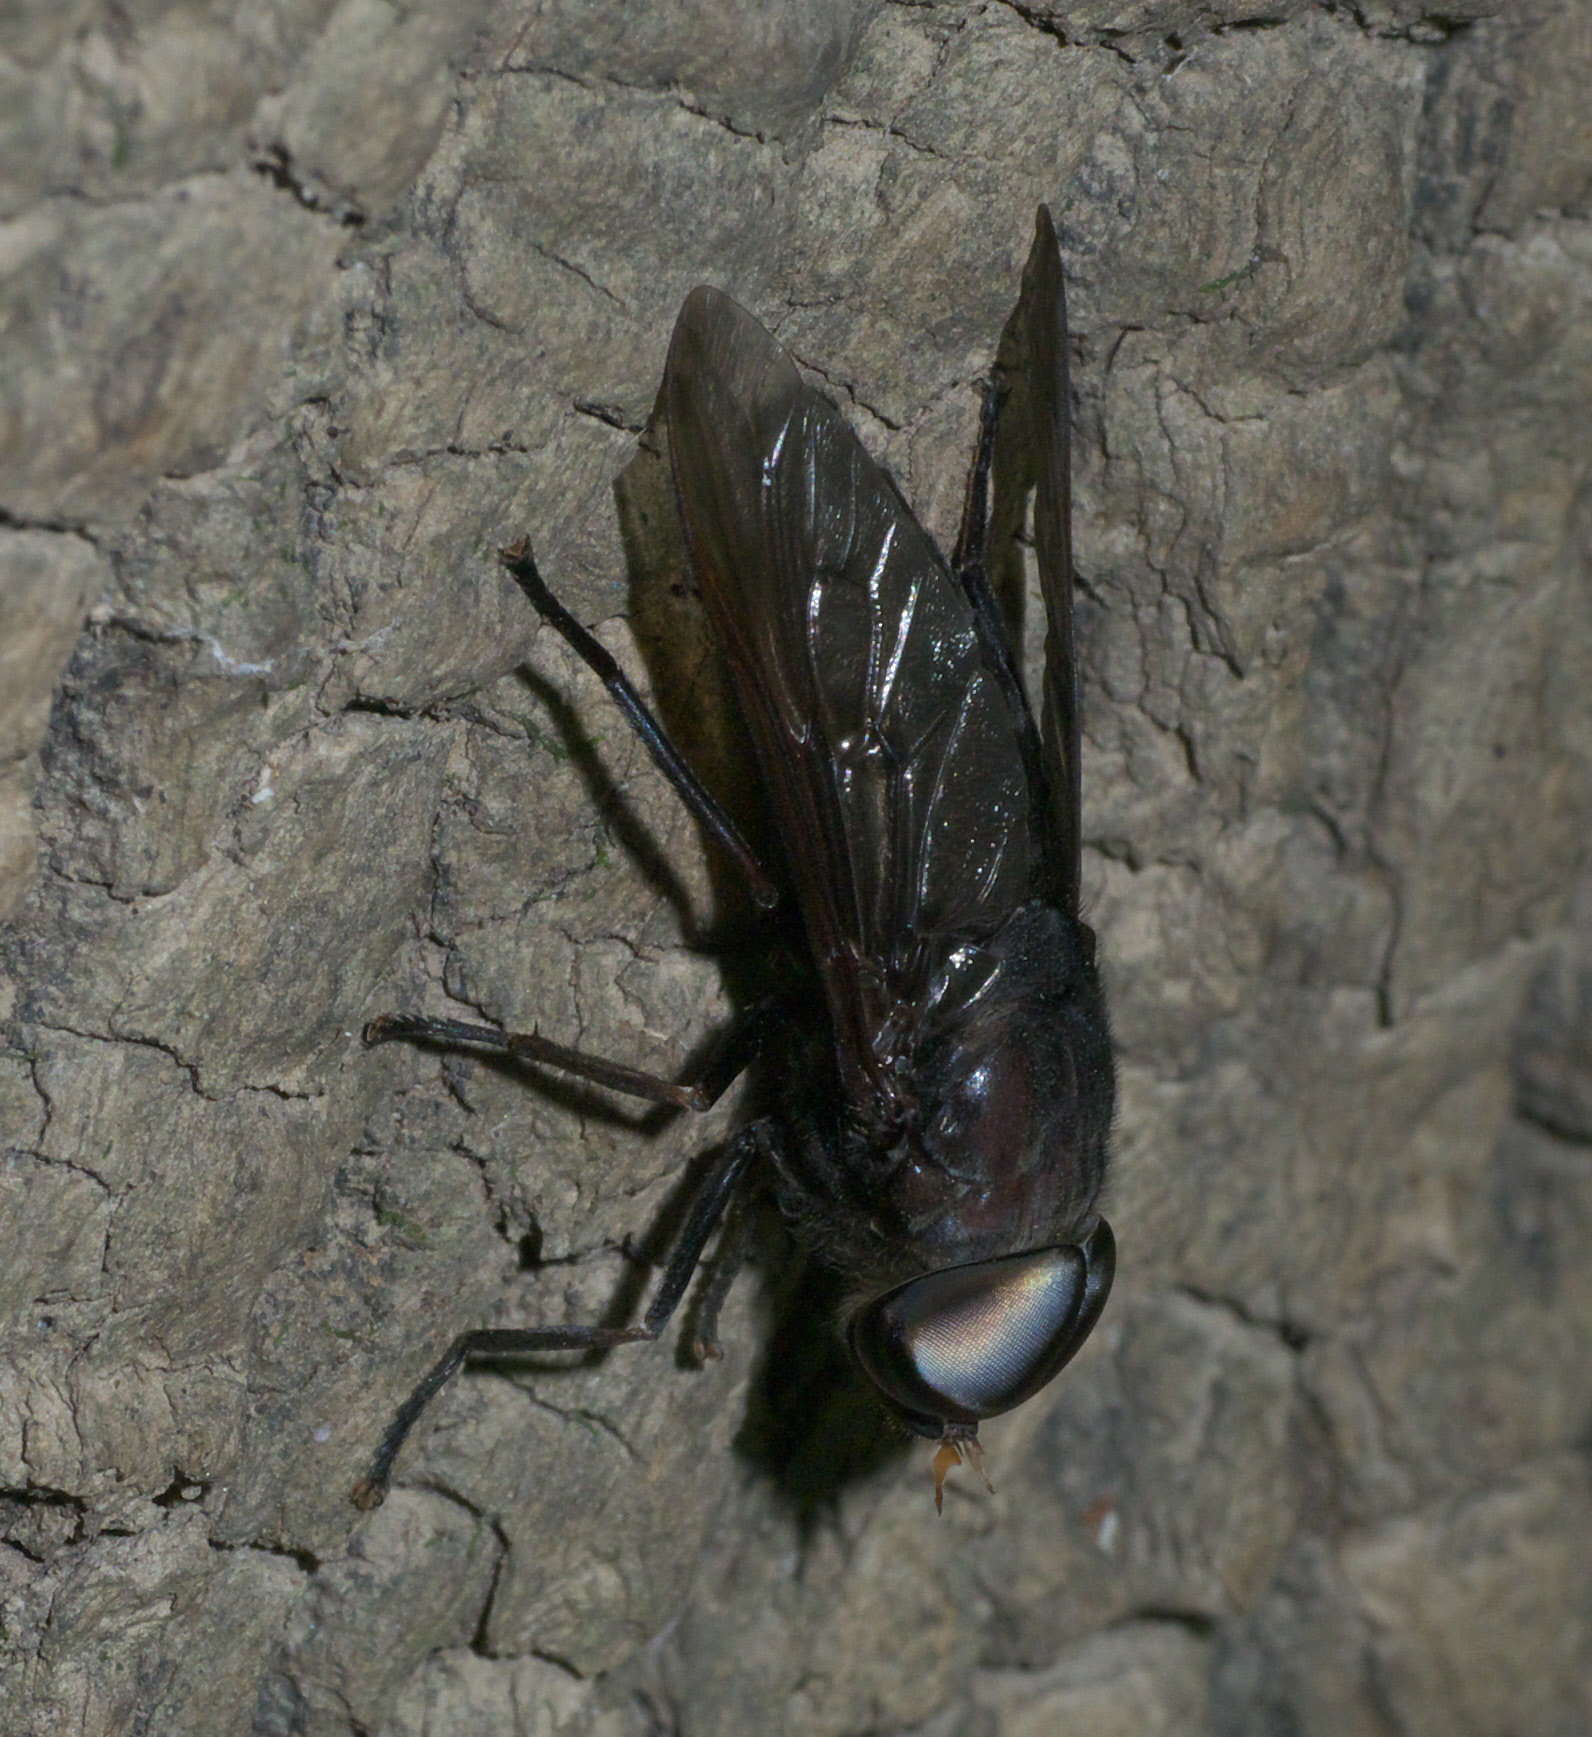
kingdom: Animalia
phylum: Arthropoda
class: Insecta
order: Diptera
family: Tabanidae
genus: Tabanus
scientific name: Tabanus calens
